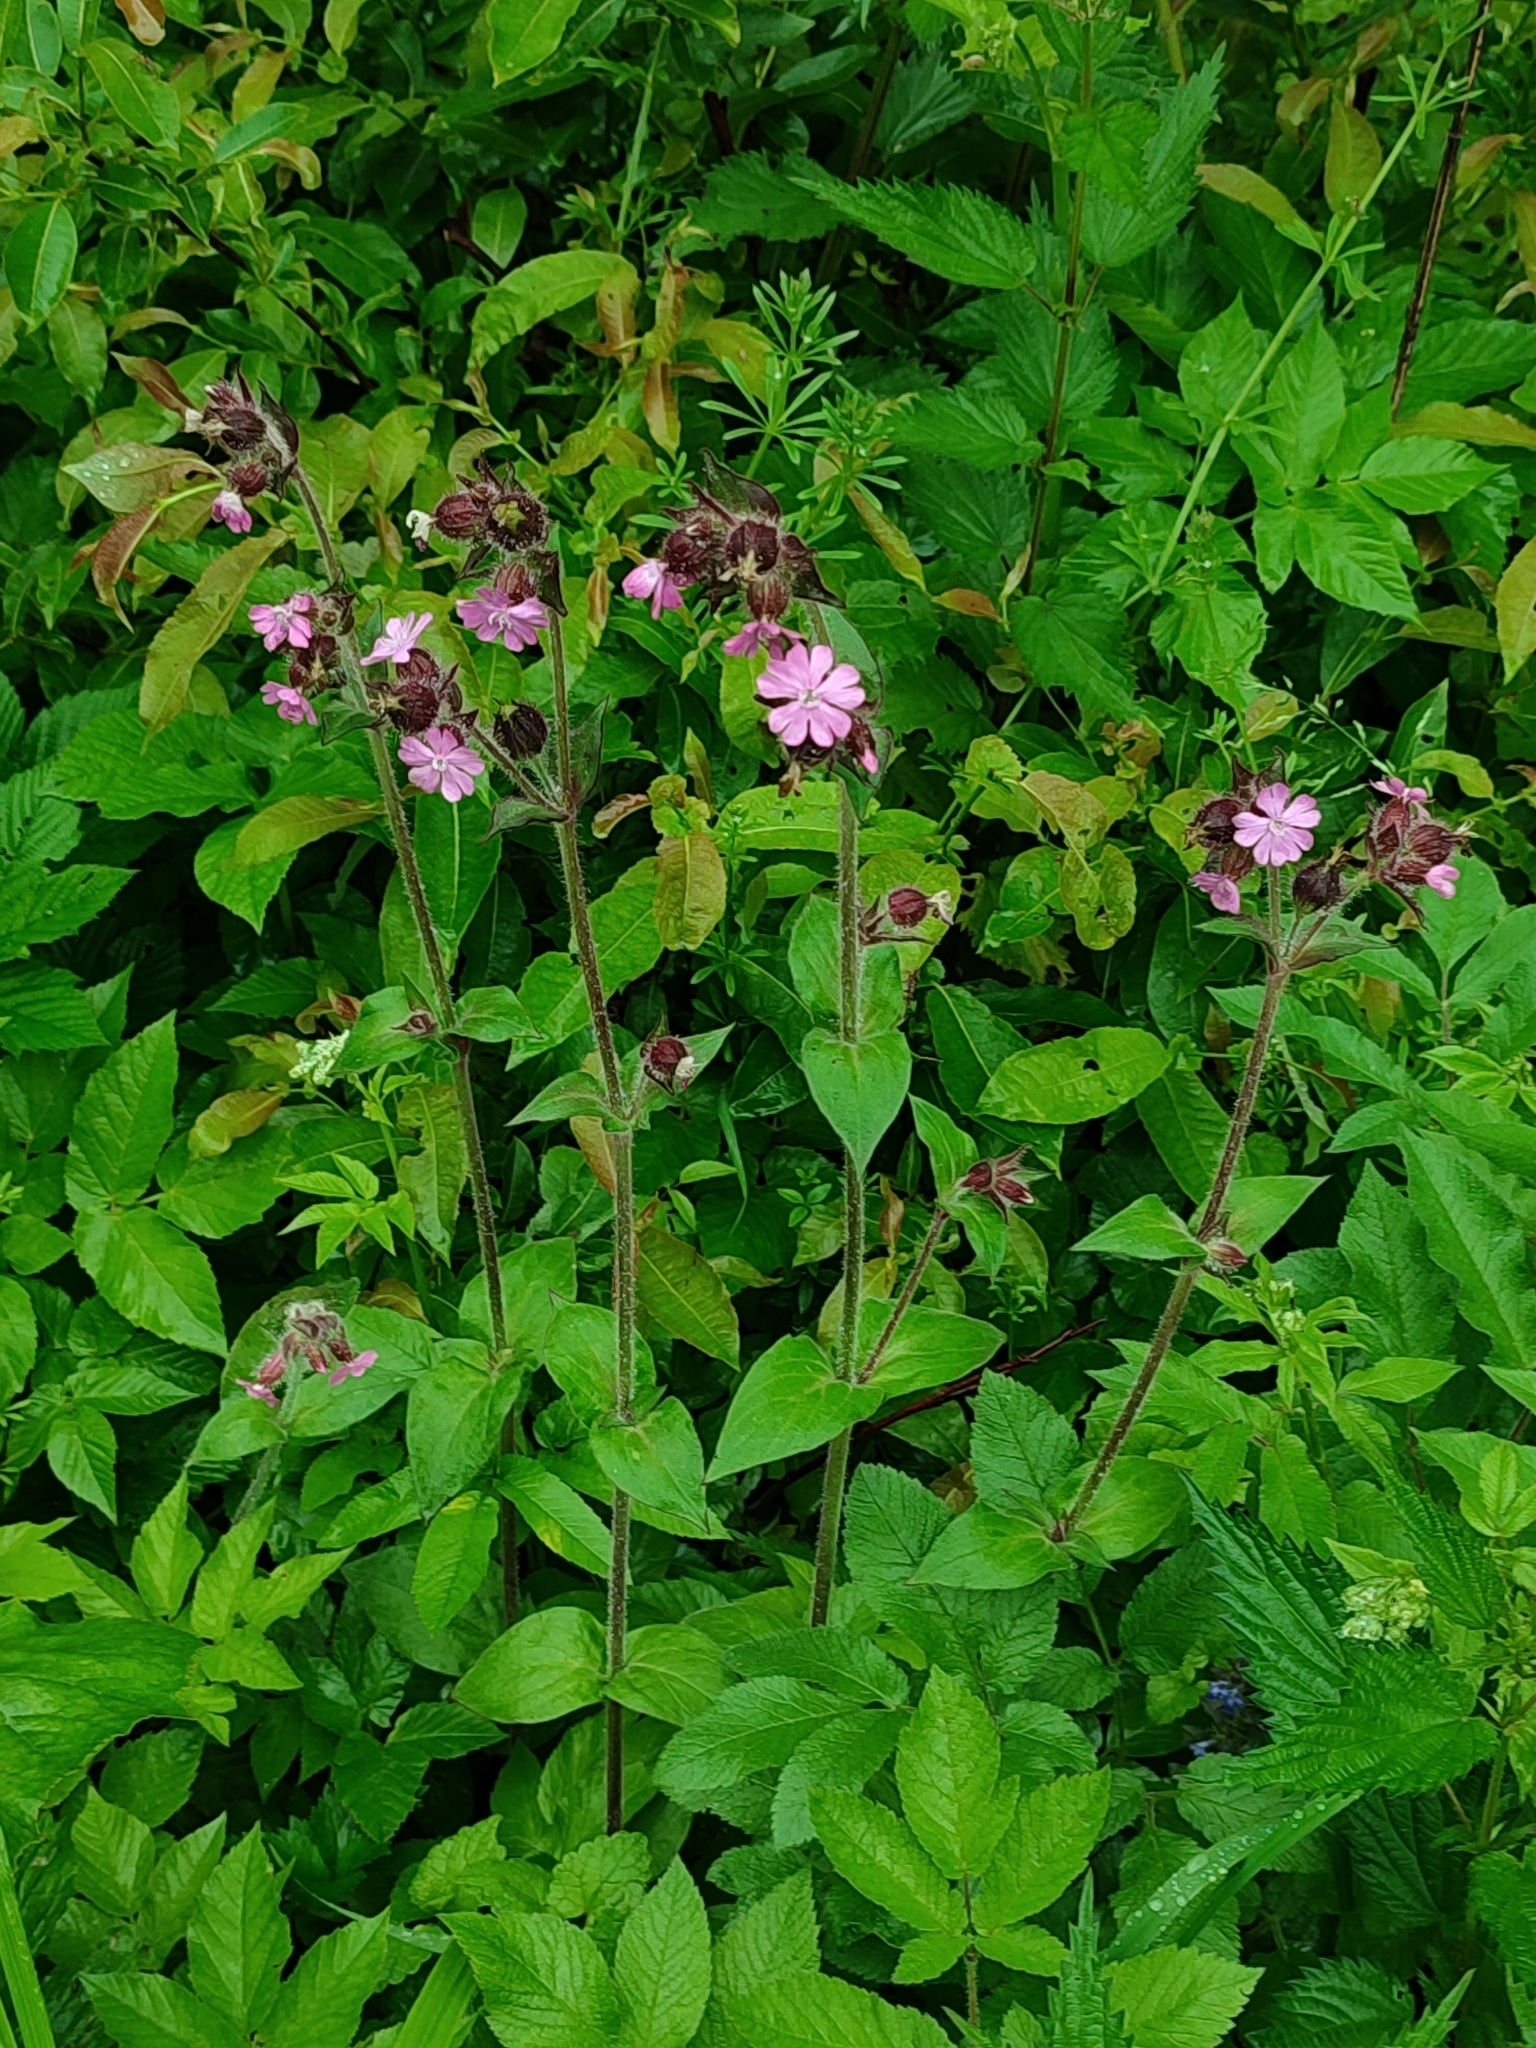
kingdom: Plantae
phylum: Tracheophyta
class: Magnoliopsida
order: Caryophyllales
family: Caryophyllaceae
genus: Silene
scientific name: Silene dioica
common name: Red campion
